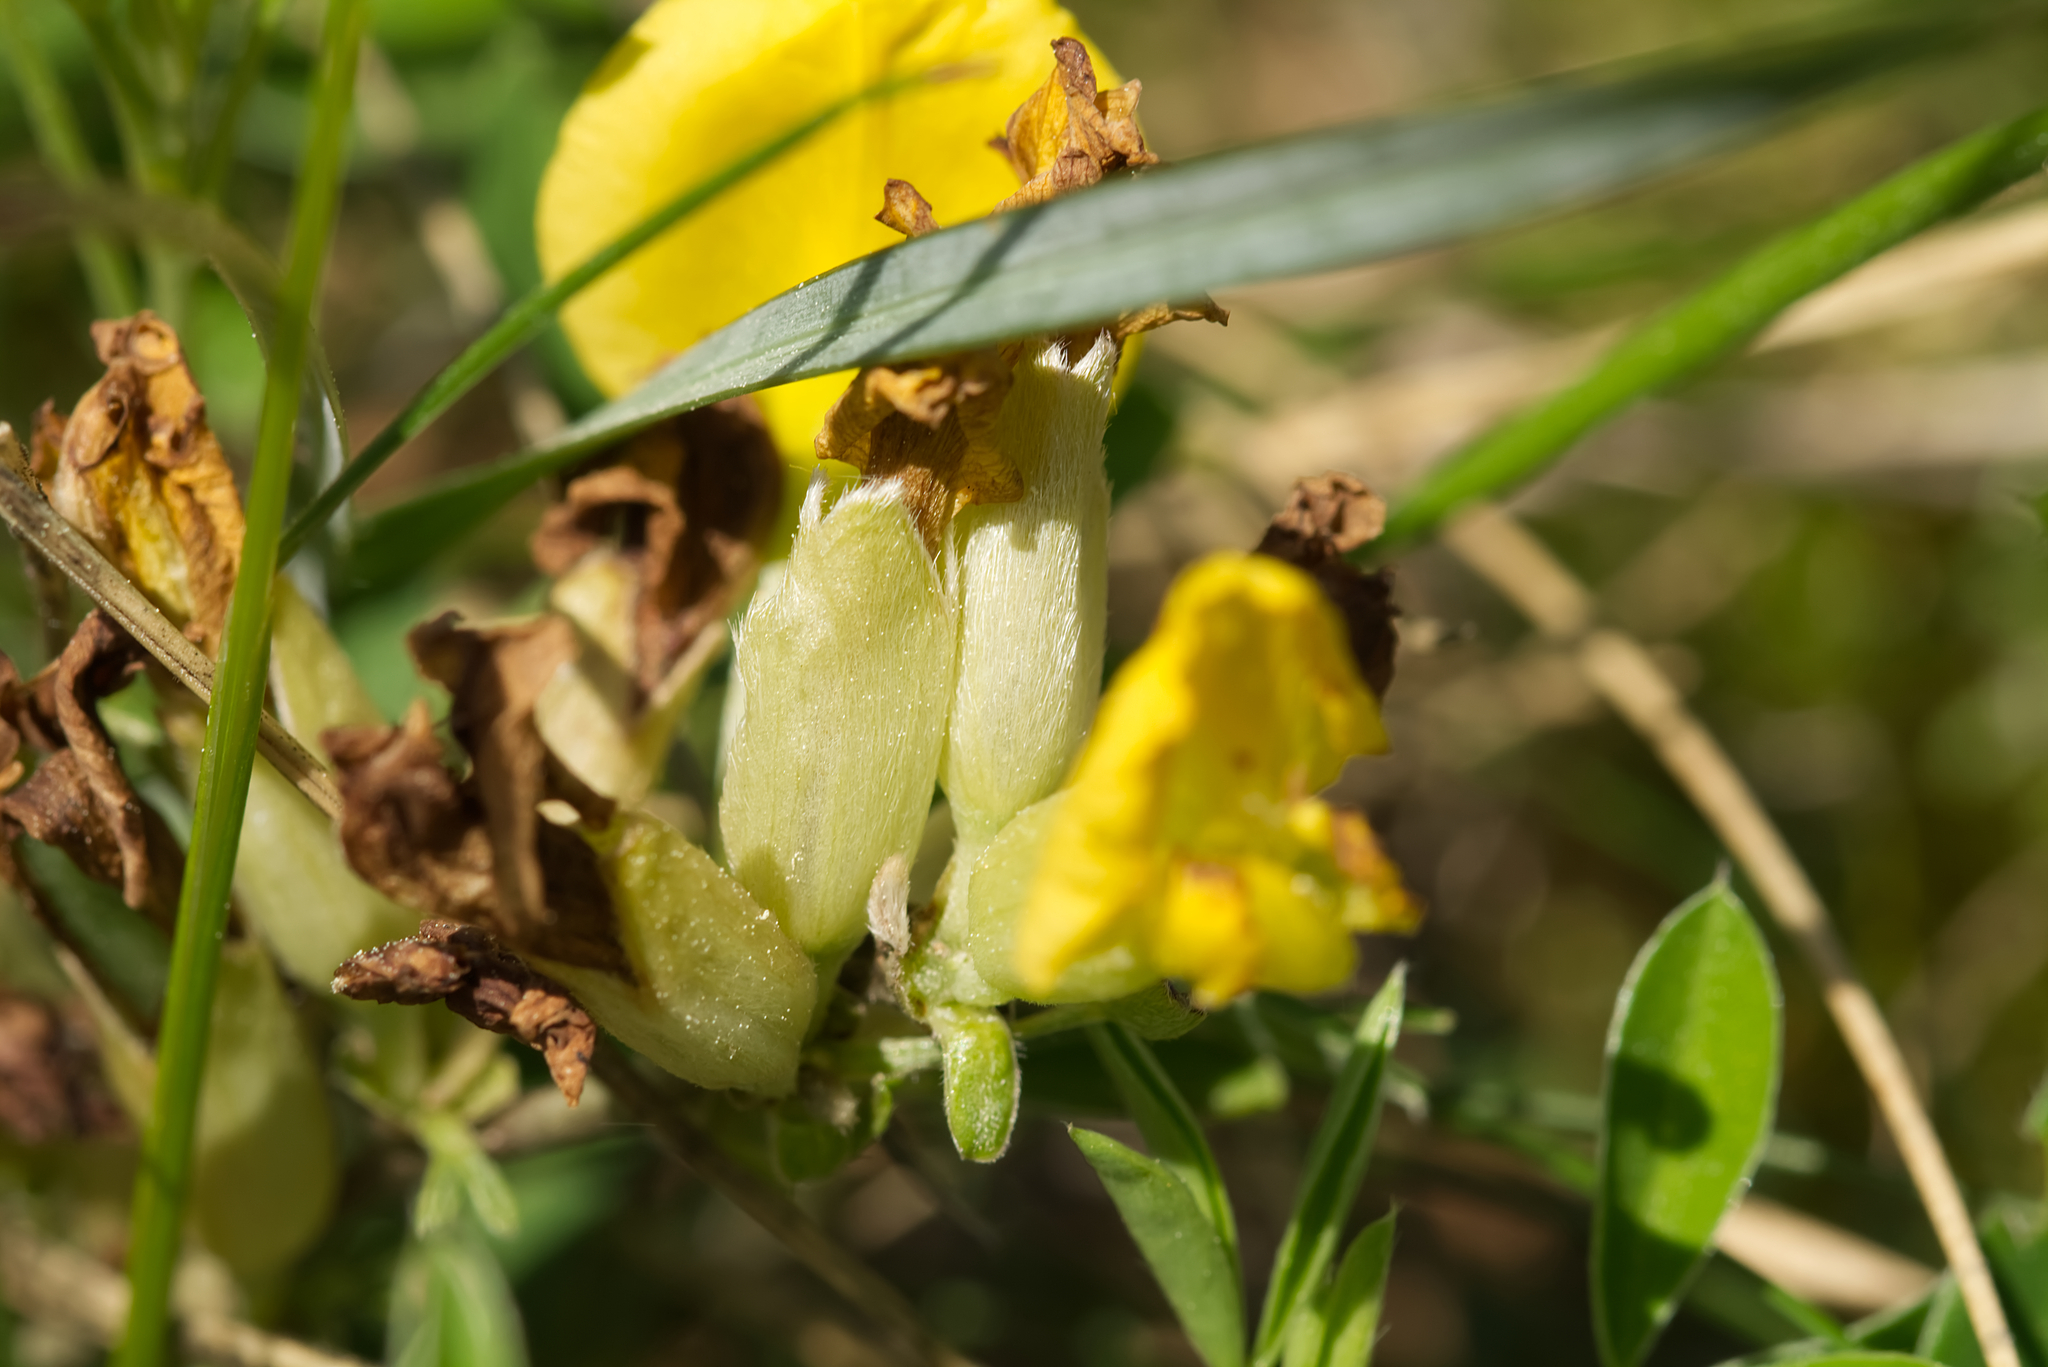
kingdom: Plantae
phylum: Tracheophyta
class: Magnoliopsida
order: Fabales
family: Fabaceae
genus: Chamaecytisus
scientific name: Chamaecytisus ratisbonensis
